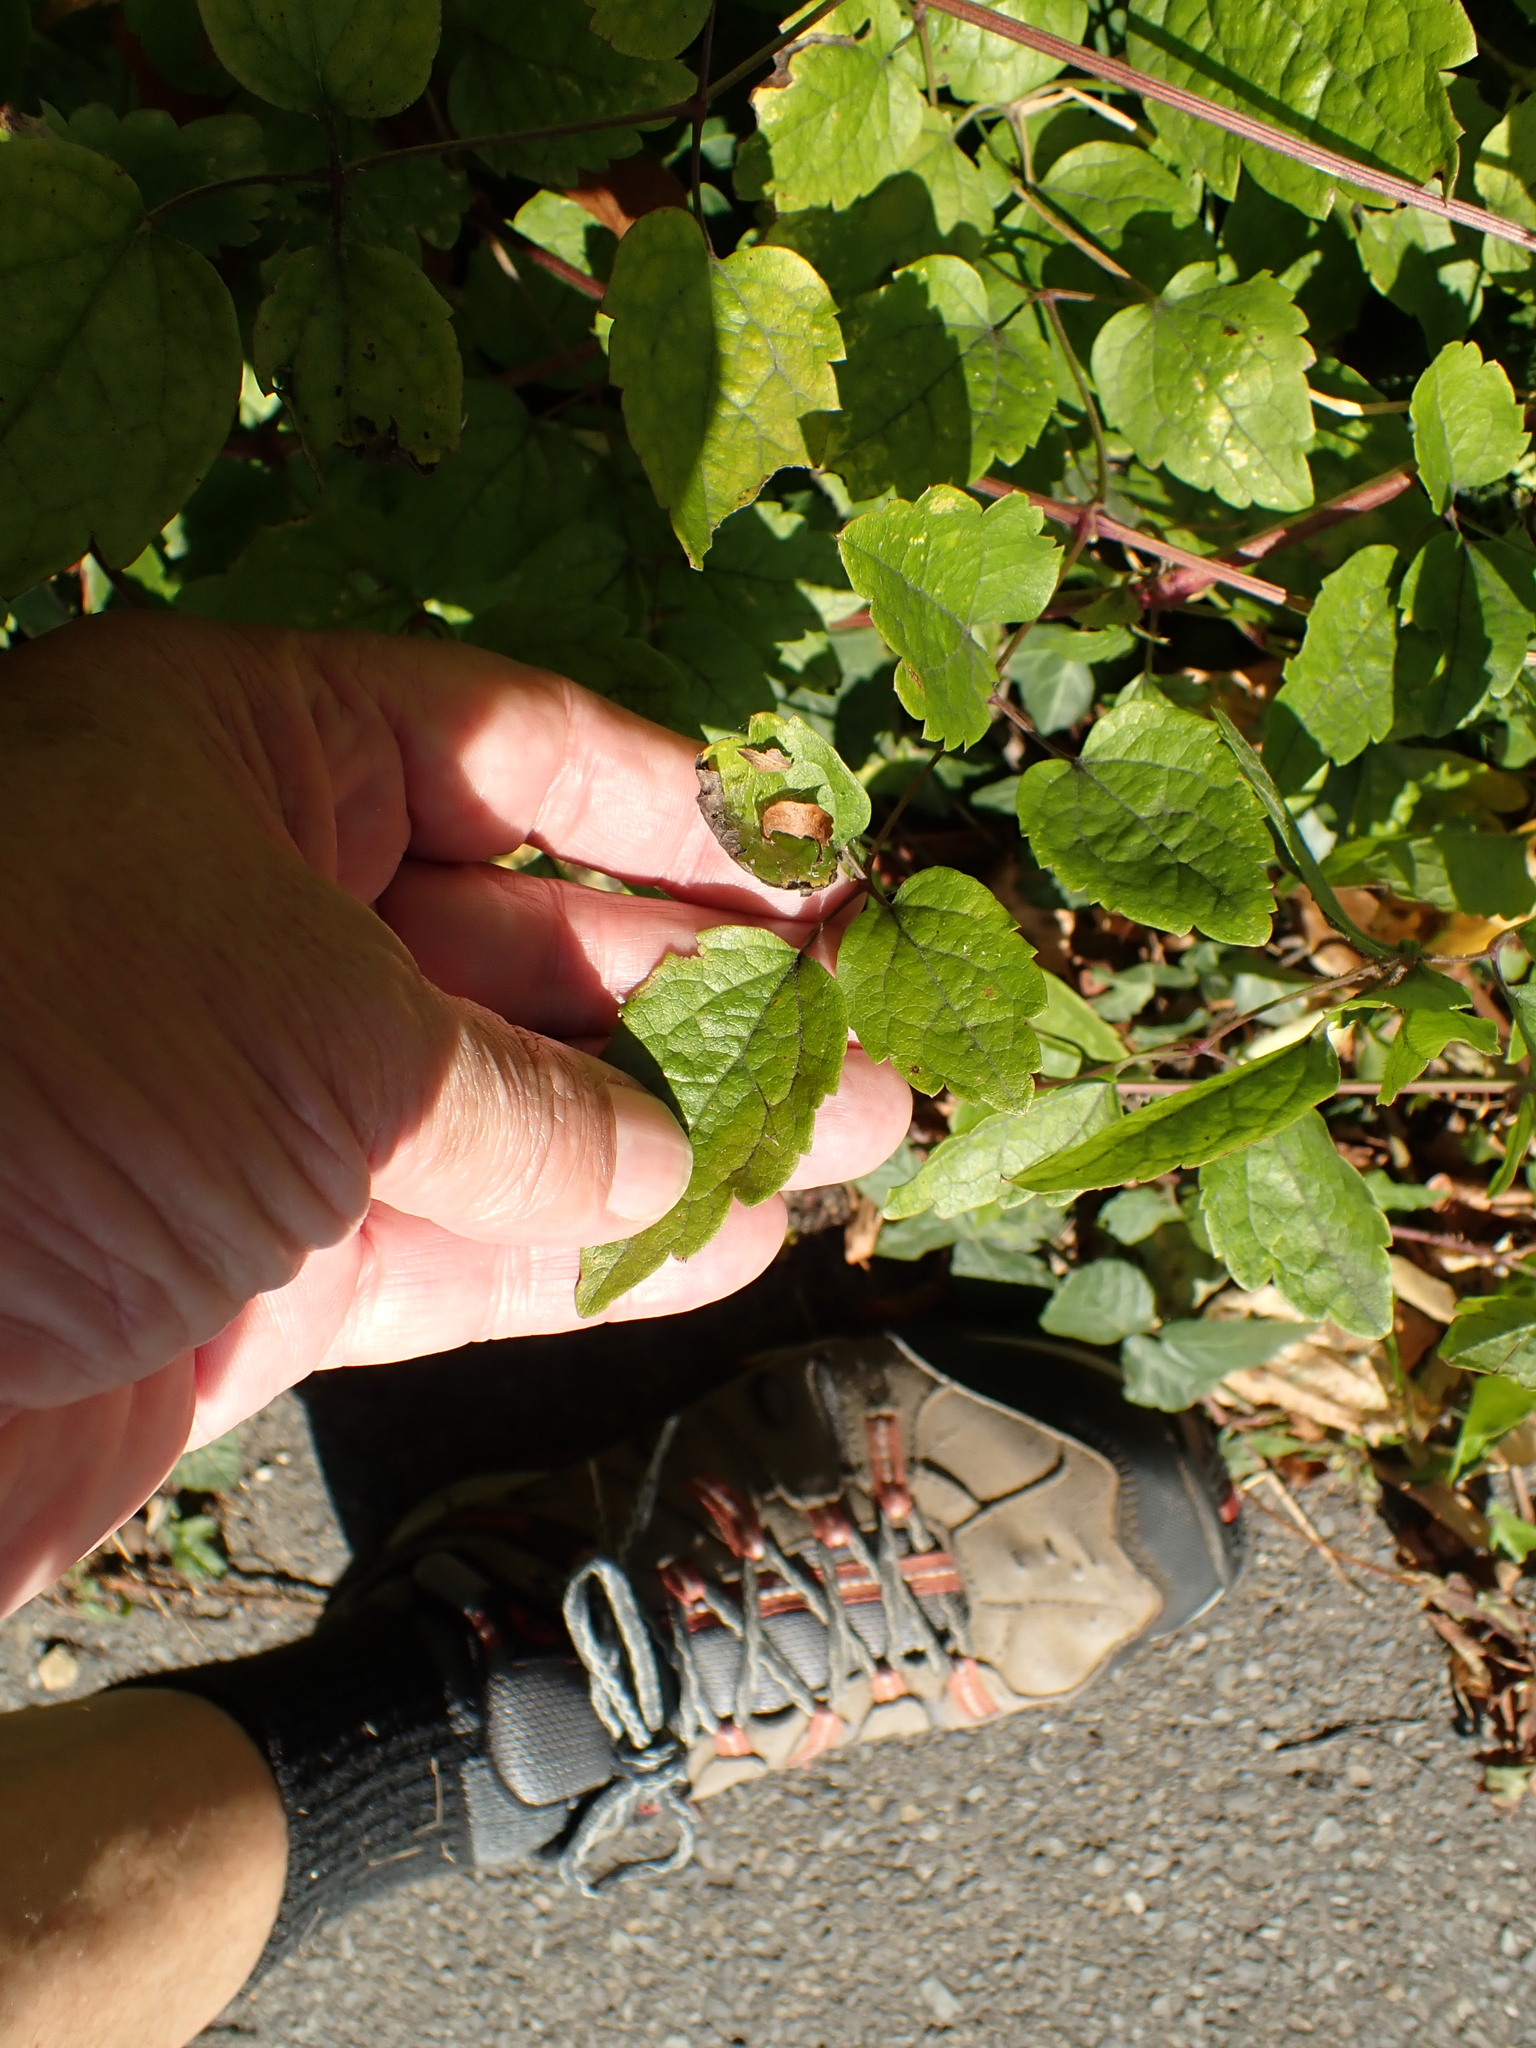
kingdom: Plantae
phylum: Tracheophyta
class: Magnoliopsida
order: Ranunculales
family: Ranunculaceae
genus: Clematis
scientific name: Clematis vitalba
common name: Evergreen clematis
